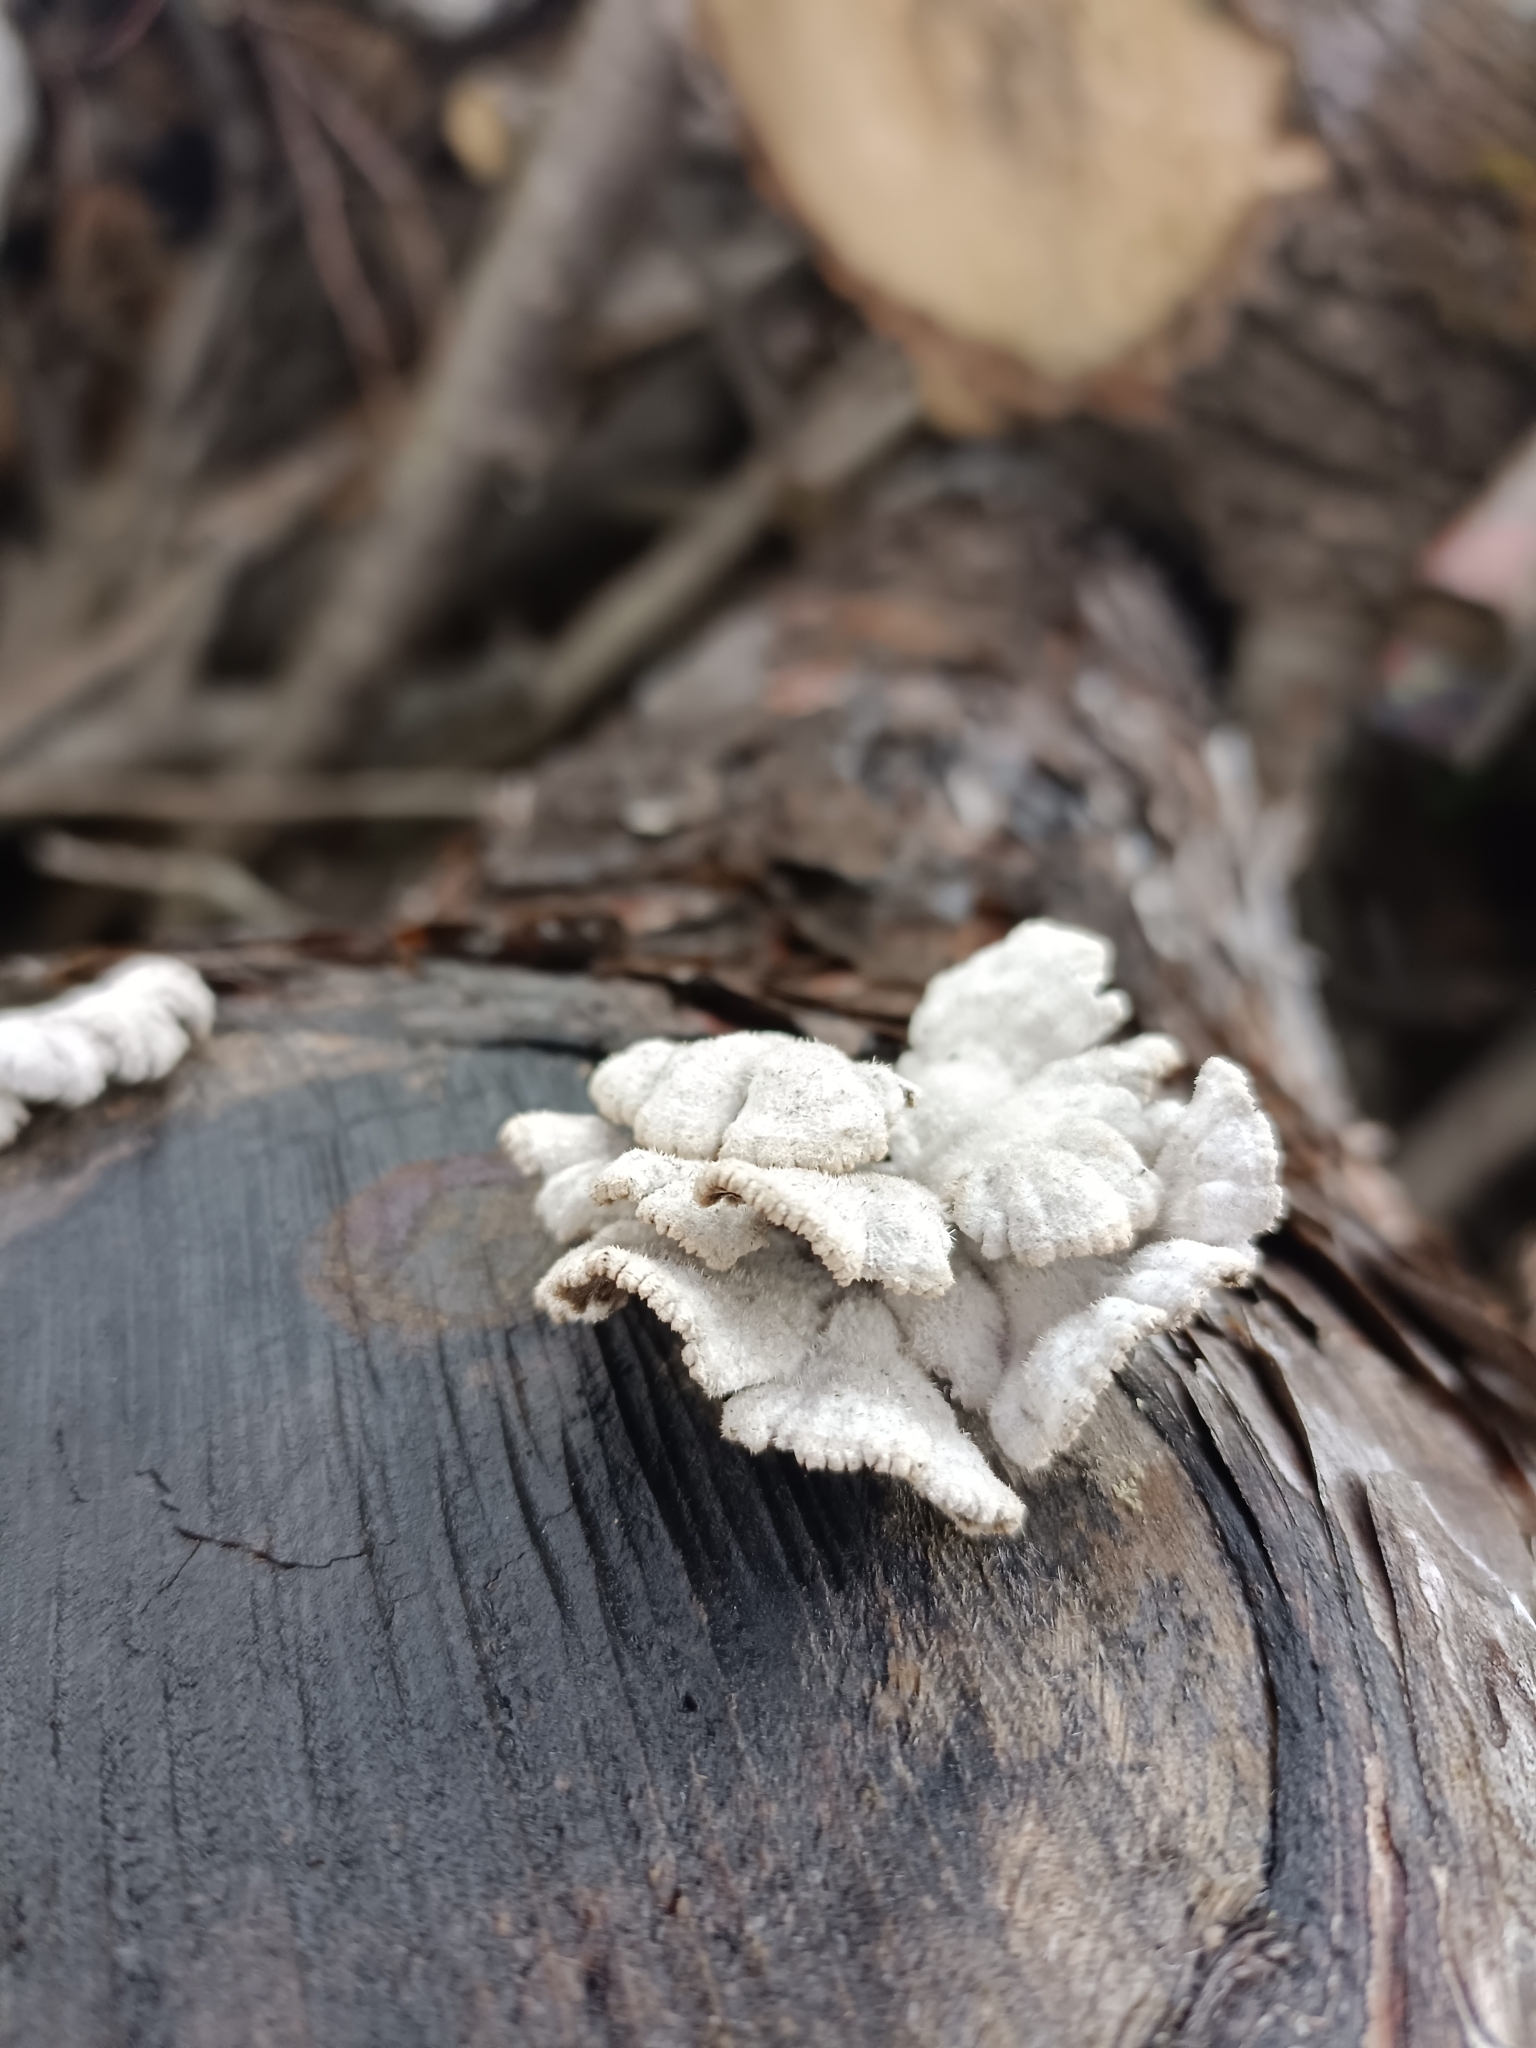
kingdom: Fungi
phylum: Basidiomycota
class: Agaricomycetes
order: Agaricales
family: Schizophyllaceae
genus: Schizophyllum
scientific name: Schizophyllum commune
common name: Common porecrust
